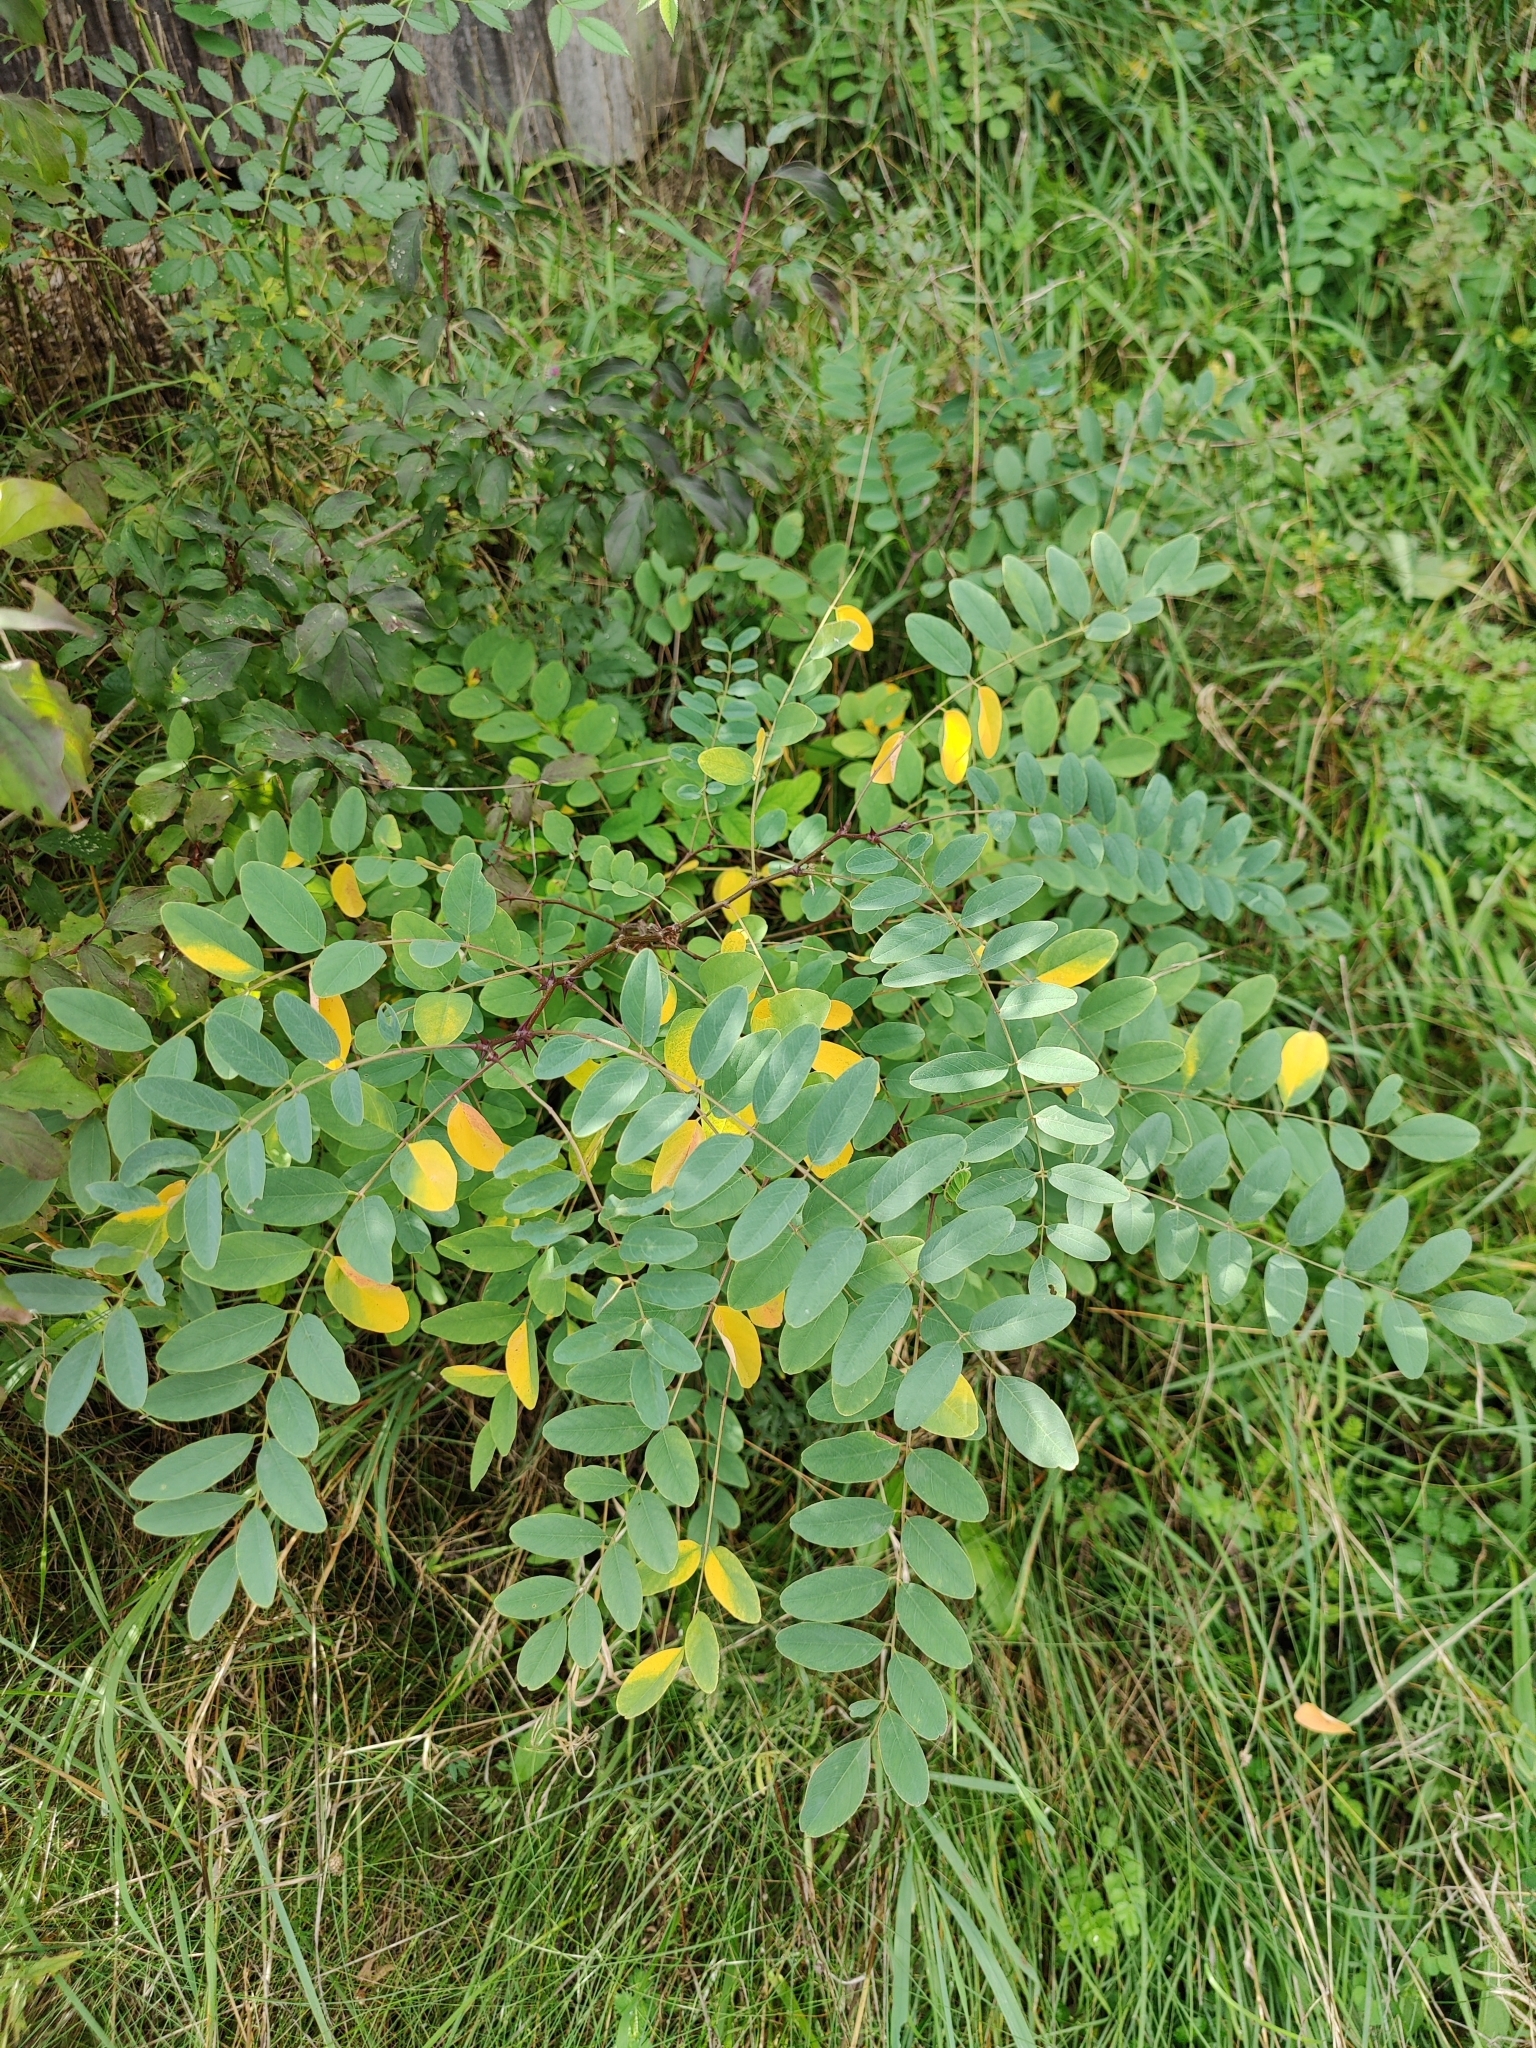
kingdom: Plantae
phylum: Tracheophyta
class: Magnoliopsida
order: Fabales
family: Fabaceae
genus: Robinia
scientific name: Robinia pseudoacacia
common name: Black locust
